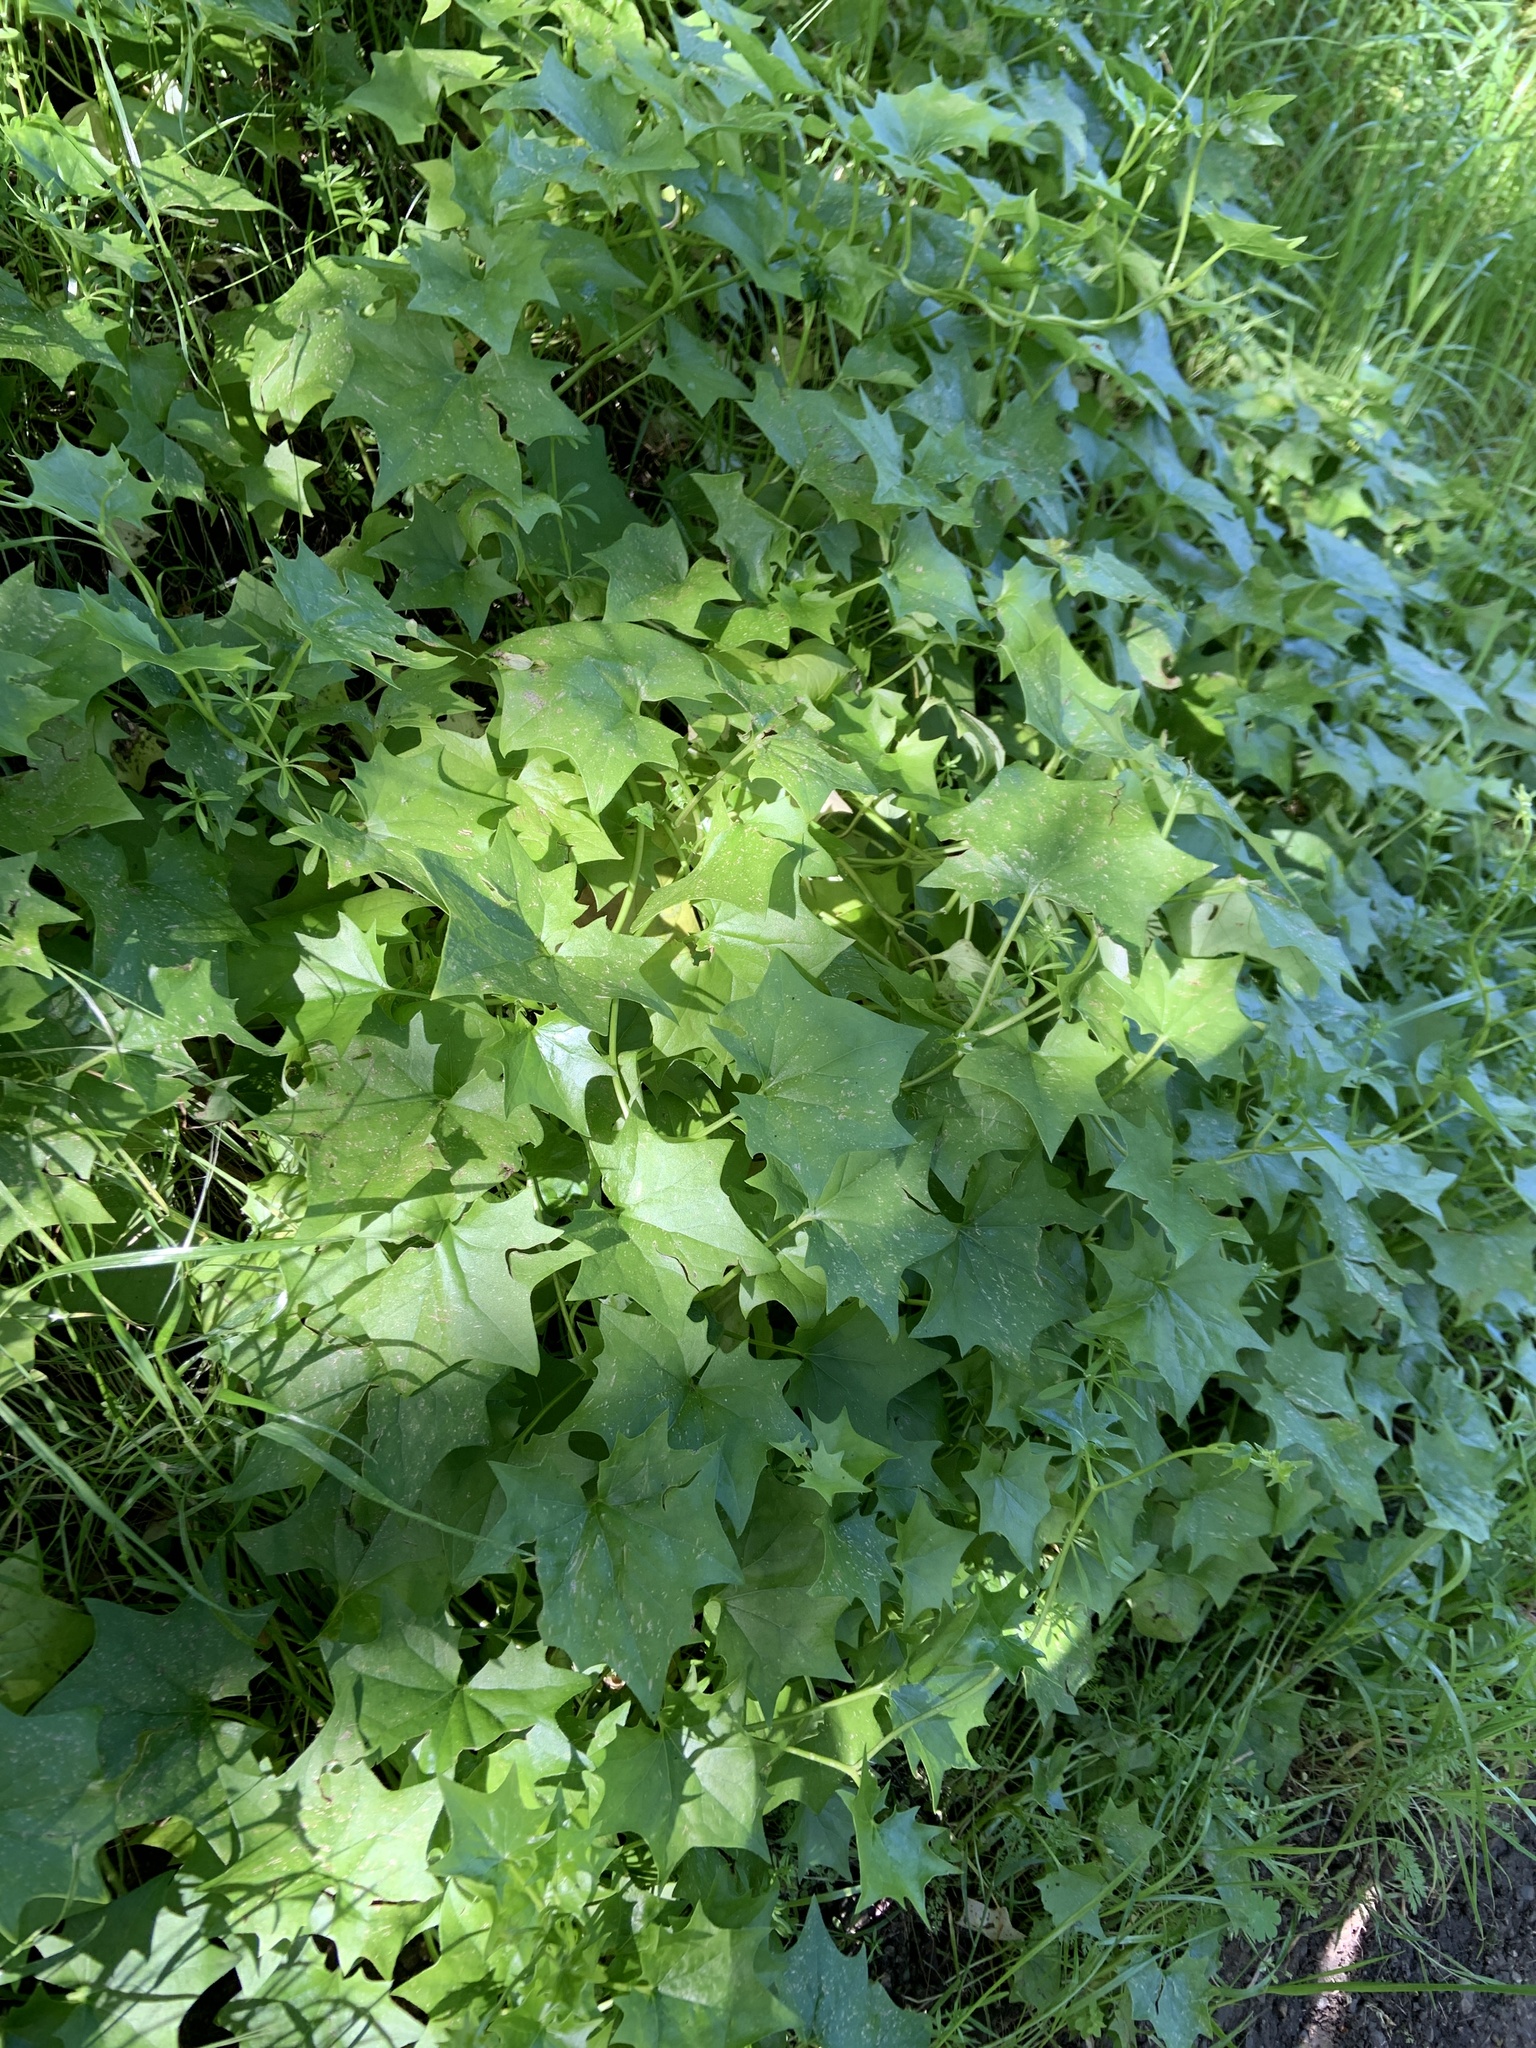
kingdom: Plantae
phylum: Tracheophyta
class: Magnoliopsida
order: Asterales
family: Asteraceae
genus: Delairea
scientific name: Delairea odorata
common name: Cape-ivy
